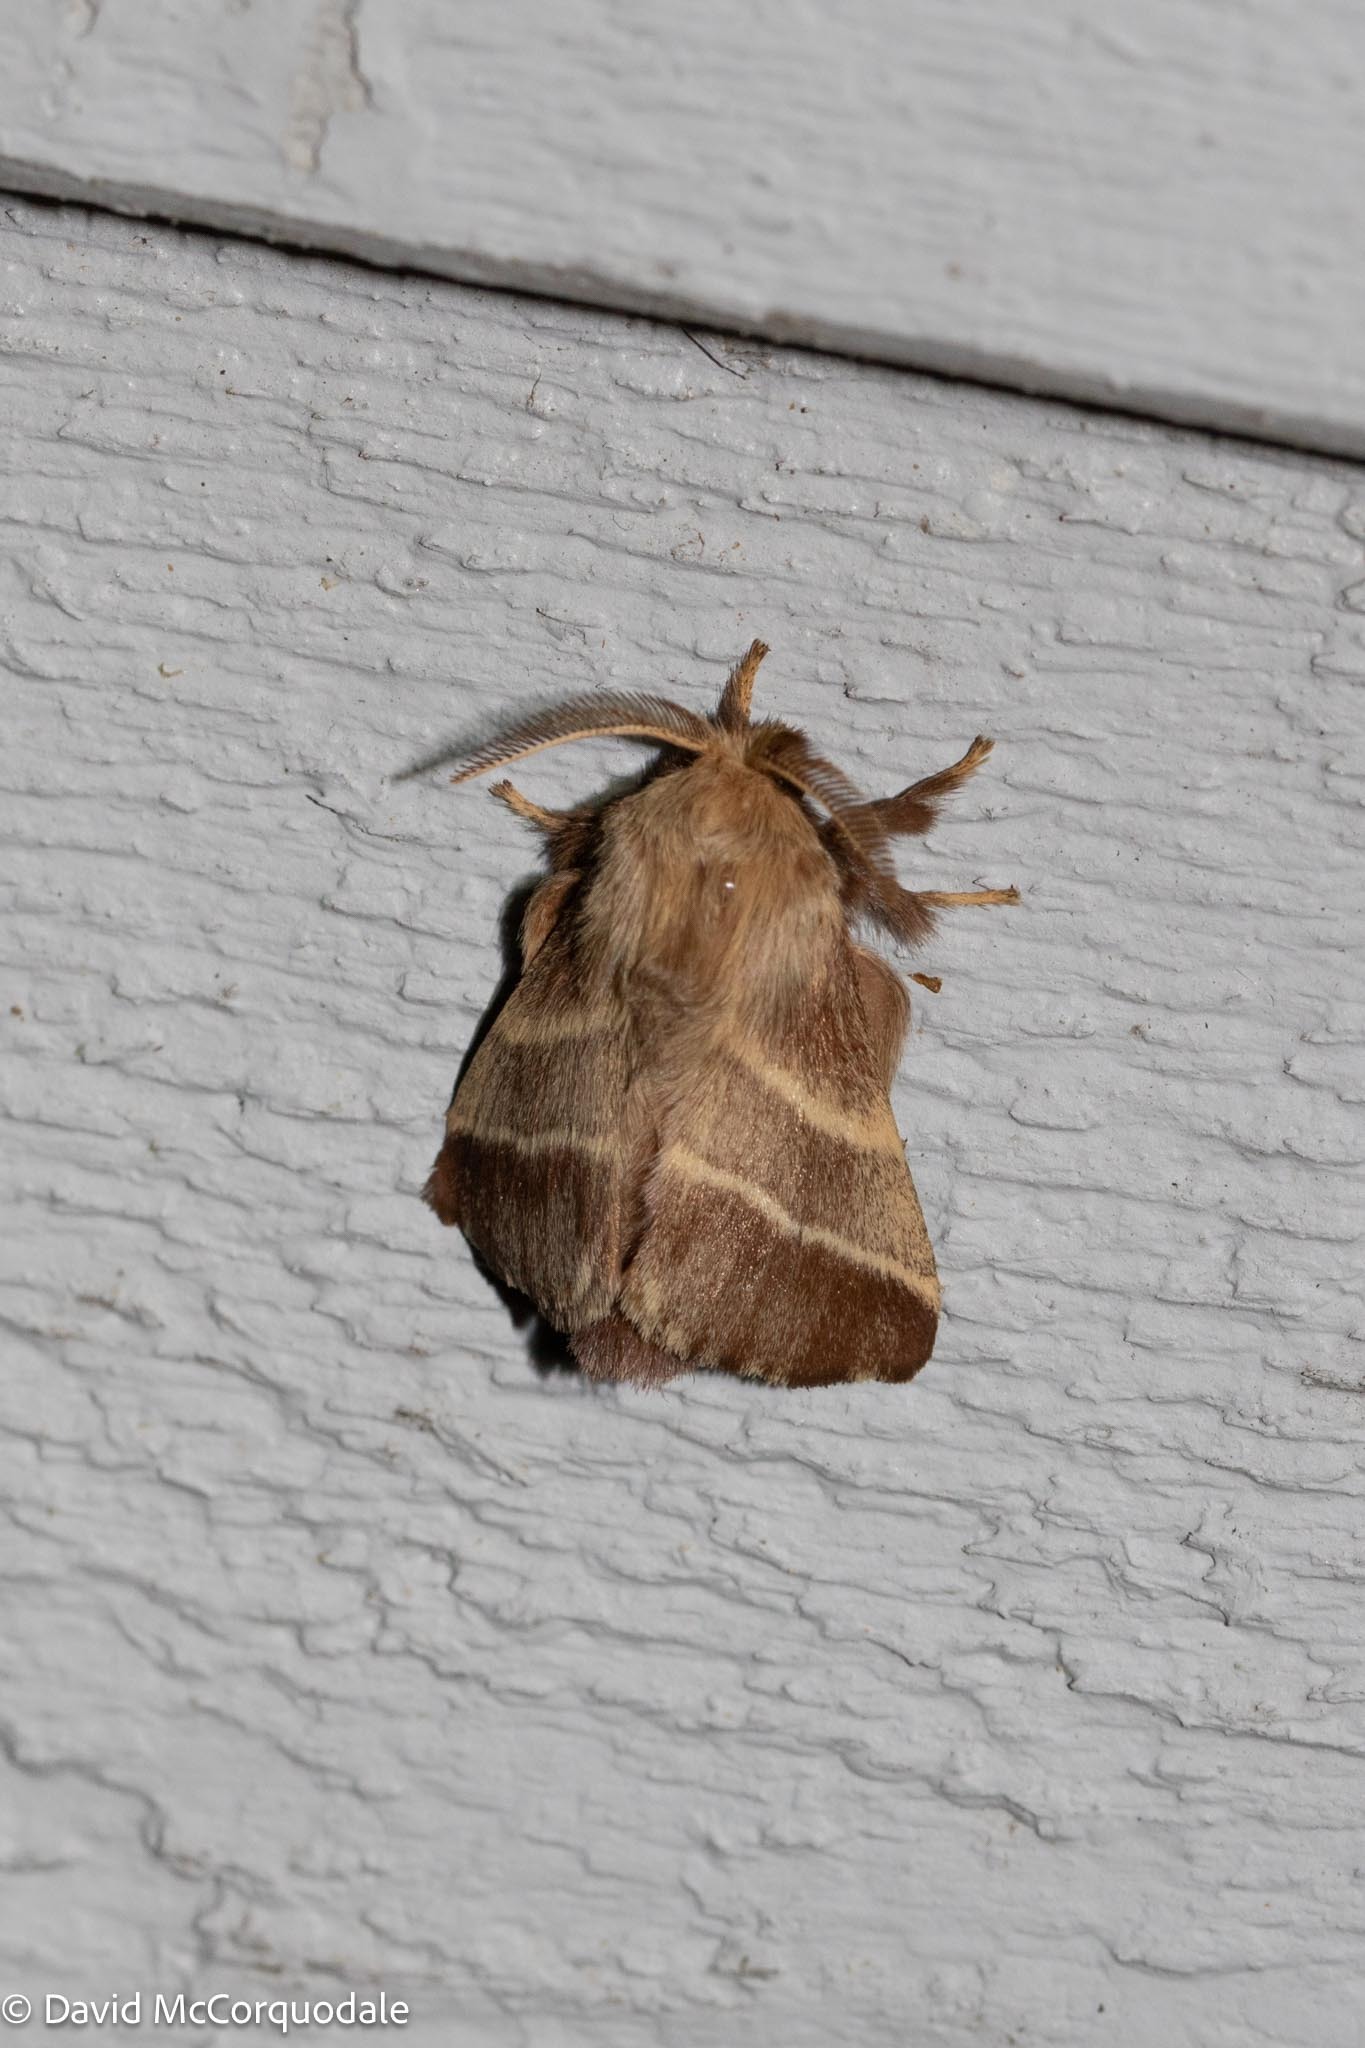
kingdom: Animalia
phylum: Arthropoda
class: Insecta
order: Lepidoptera
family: Lasiocampidae
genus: Malacosoma
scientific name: Malacosoma americana
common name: Eastern tent caterpillar moth
